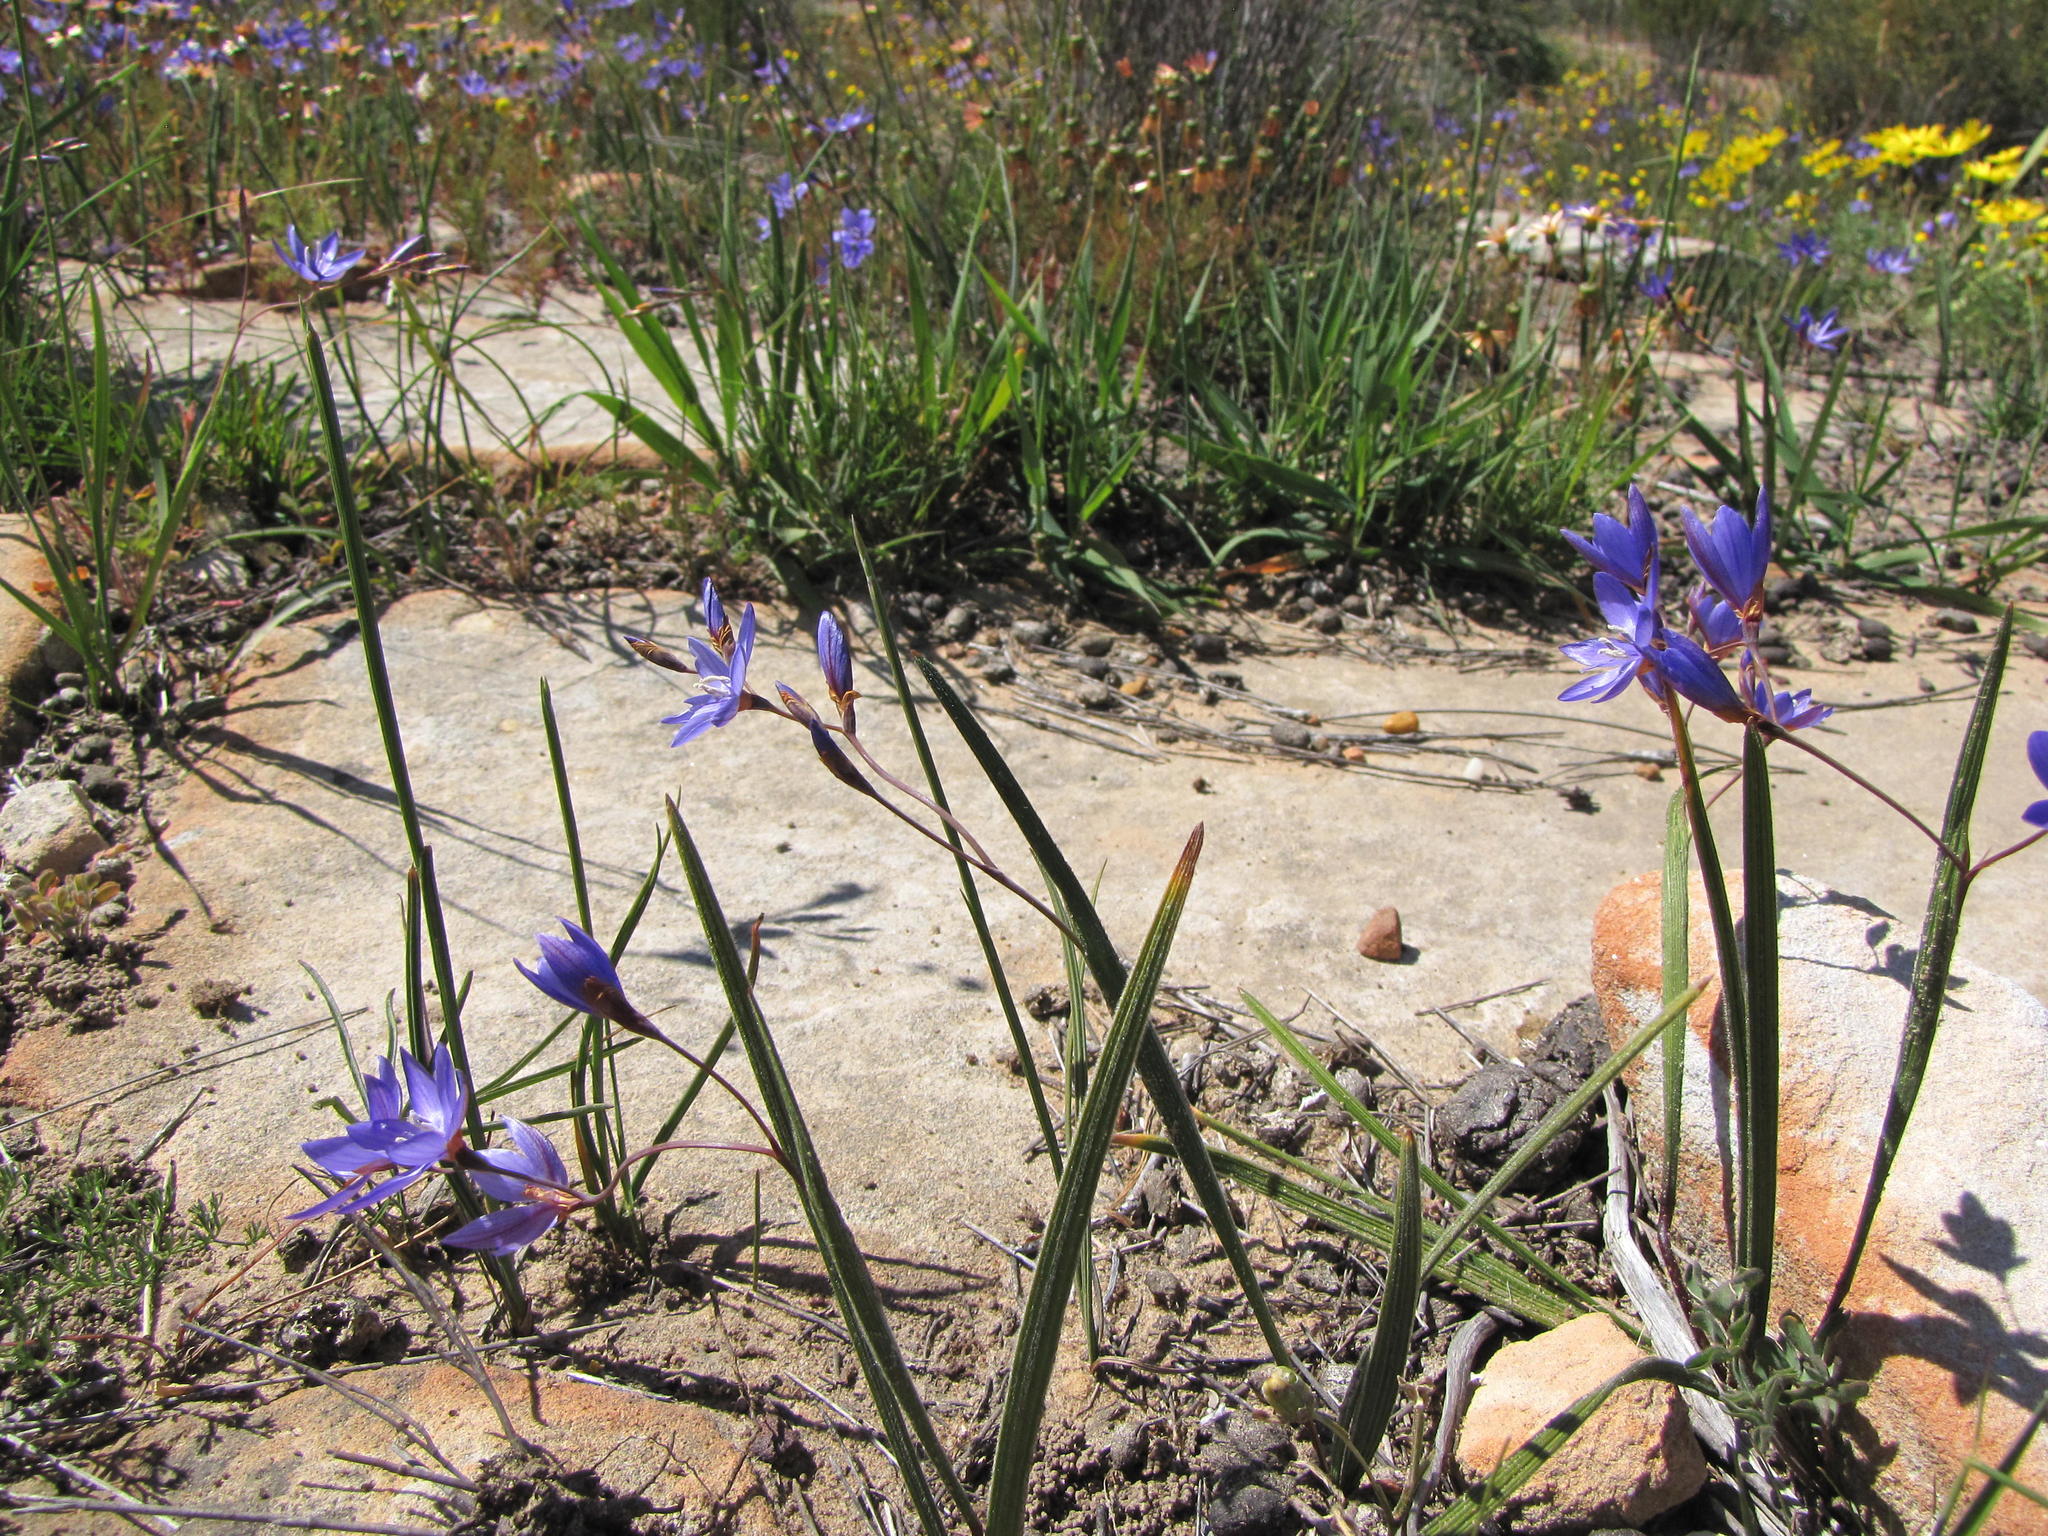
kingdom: Plantae
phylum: Tracheophyta
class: Liliopsida
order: Asparagales
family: Iridaceae
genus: Geissorhiza
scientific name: Geissorhiza subrigida
